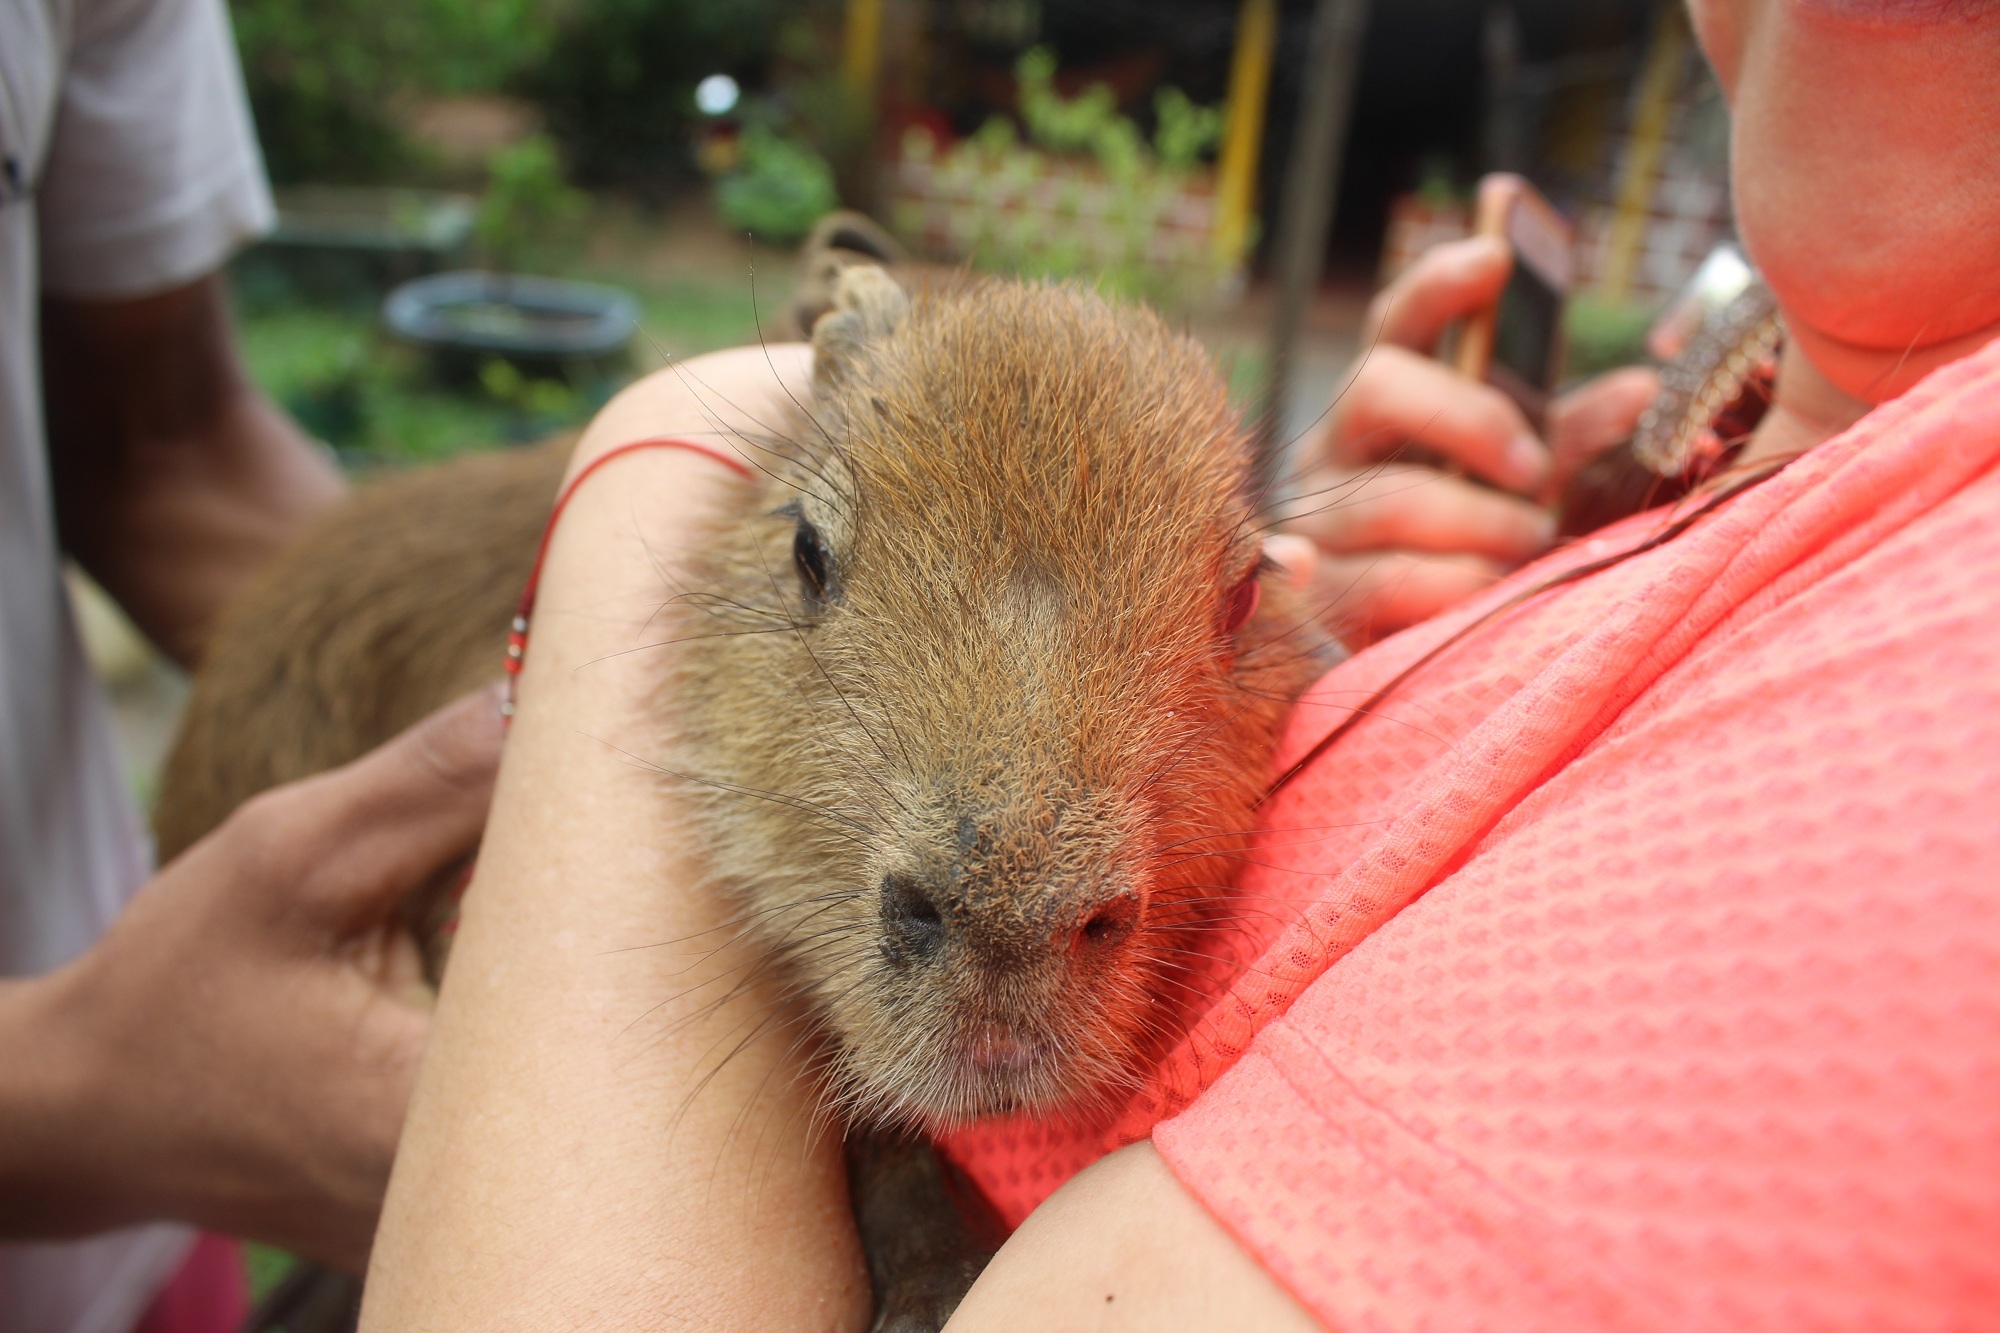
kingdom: Animalia
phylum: Chordata
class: Mammalia
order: Rodentia
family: Caviidae
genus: Hydrochoerus
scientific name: Hydrochoerus hydrochaeris
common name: Capybara
